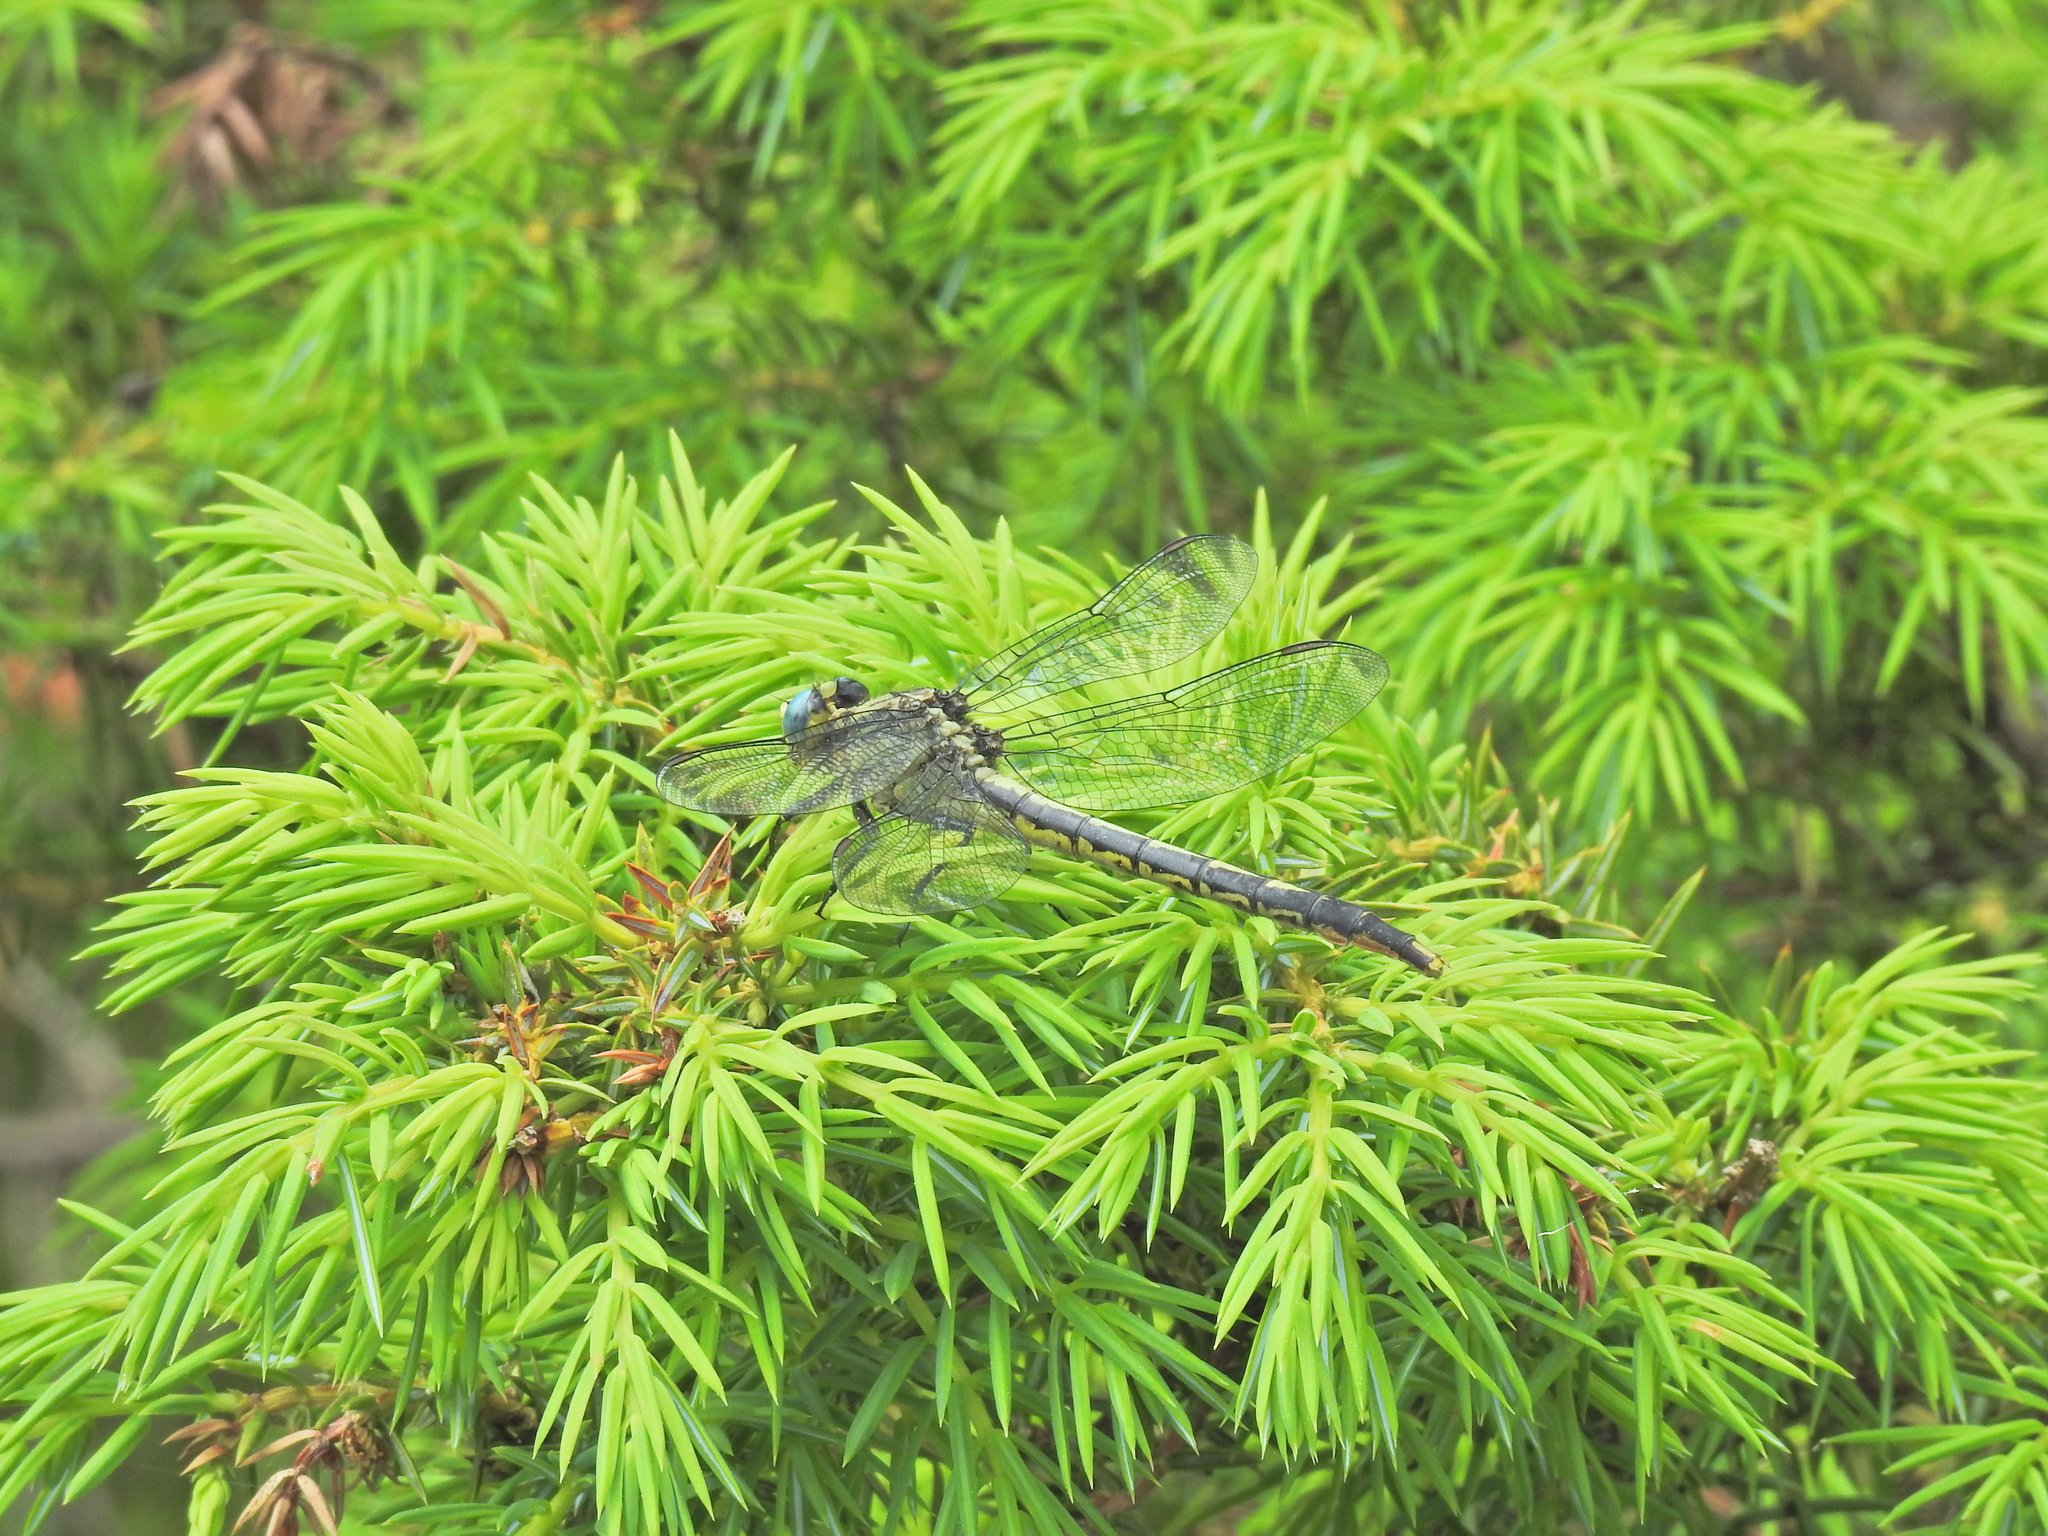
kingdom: Animalia
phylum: Arthropoda
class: Insecta
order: Odonata
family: Gomphidae
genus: Arigomphus
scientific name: Arigomphus furcifer
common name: Lilypad clubtail
